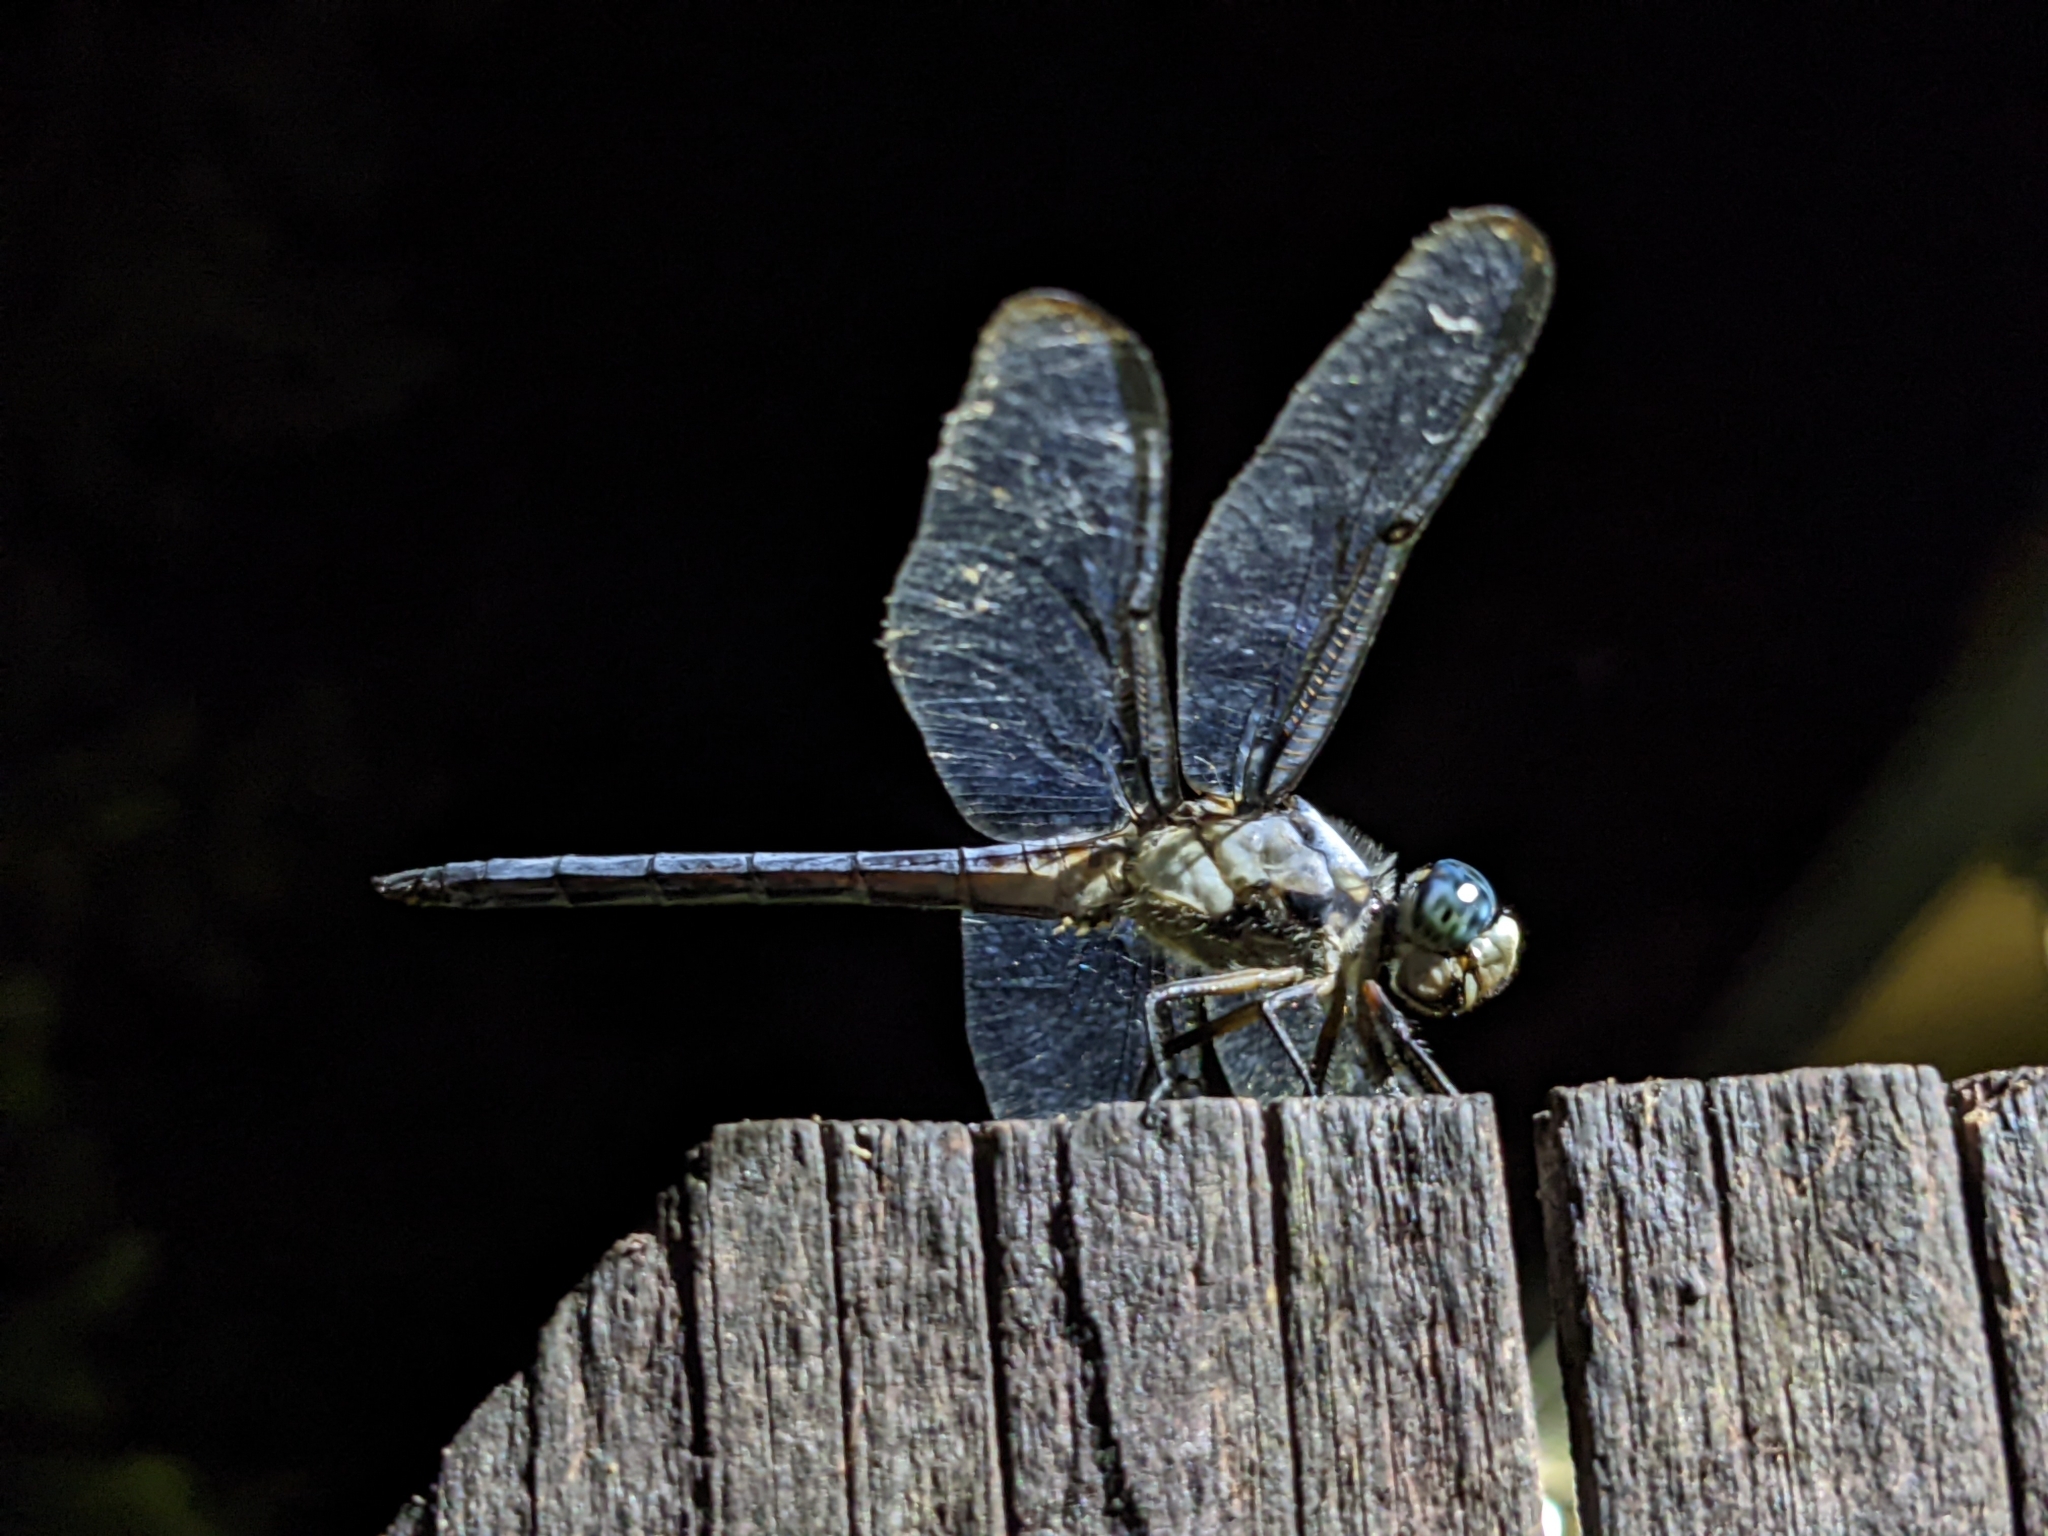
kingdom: Animalia
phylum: Arthropoda
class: Insecta
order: Odonata
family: Libellulidae
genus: Libellula
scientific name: Libellula vibrans
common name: Great blue skimmer
